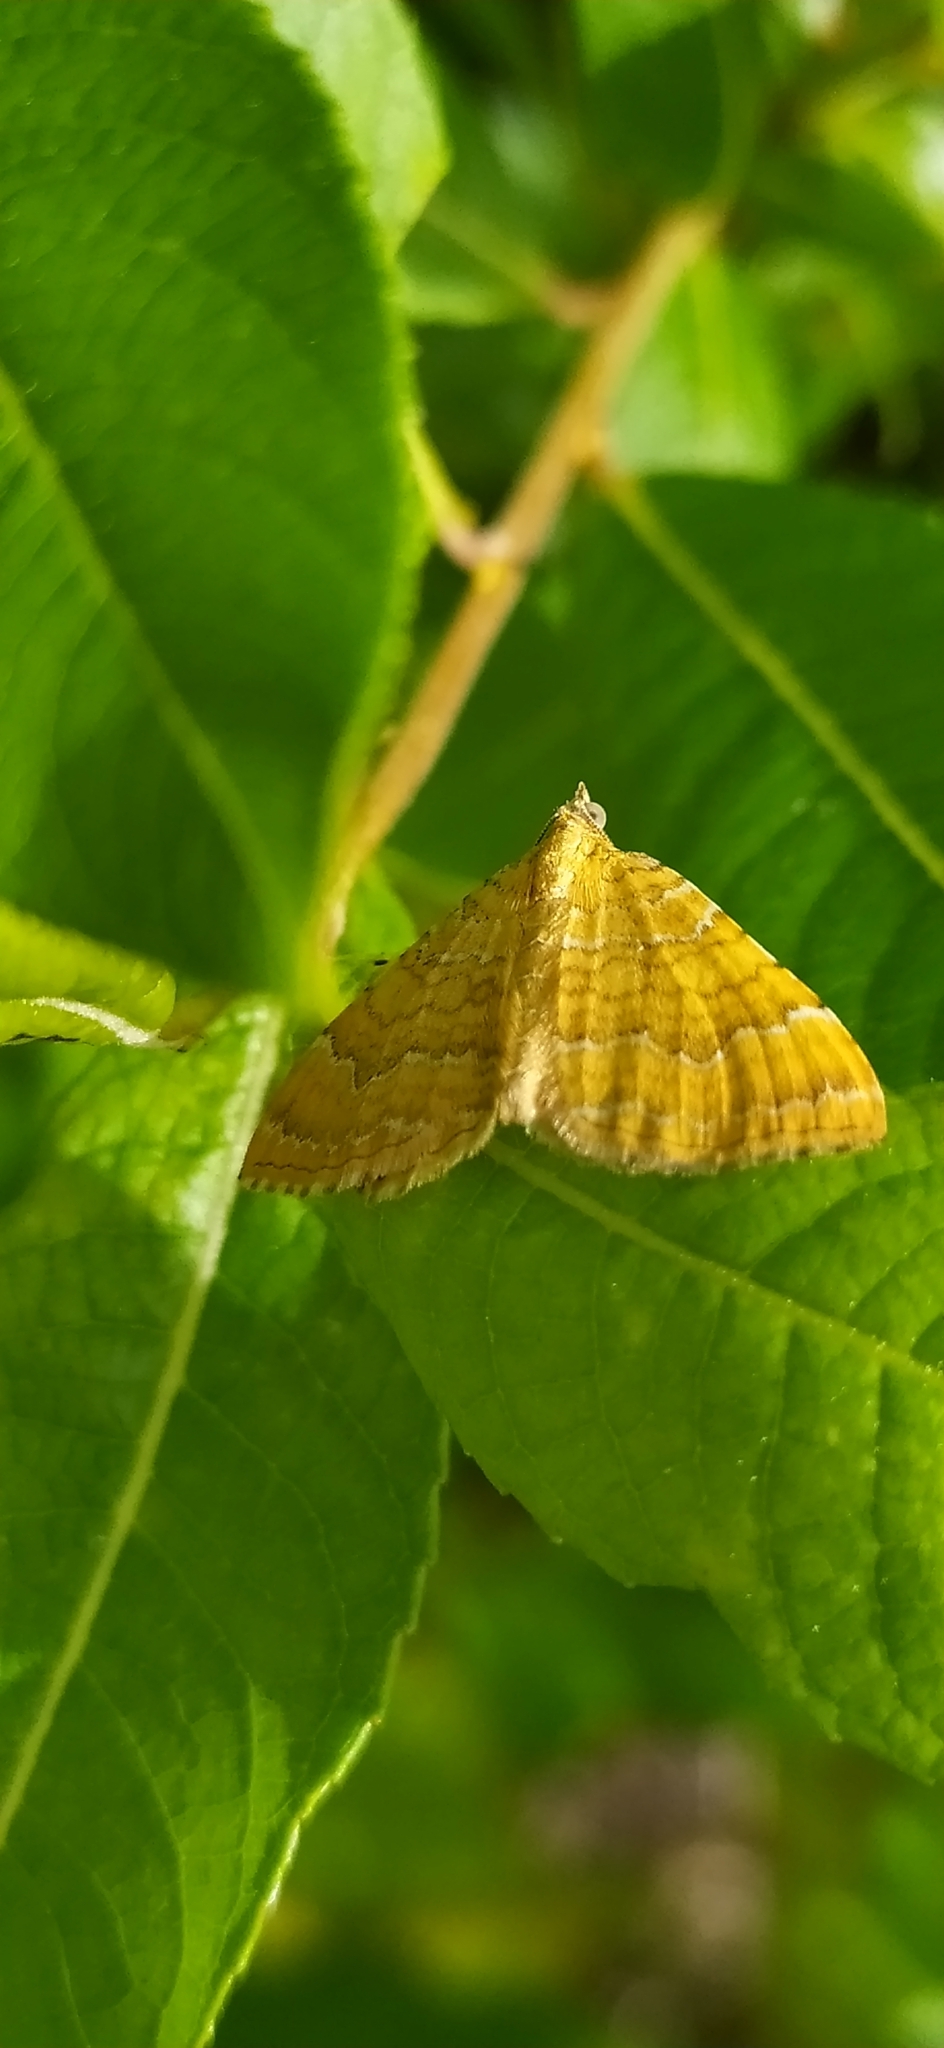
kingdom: Animalia
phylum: Arthropoda
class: Insecta
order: Lepidoptera
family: Geometridae
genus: Camptogramma
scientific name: Camptogramma bilineata
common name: Yellow shell
